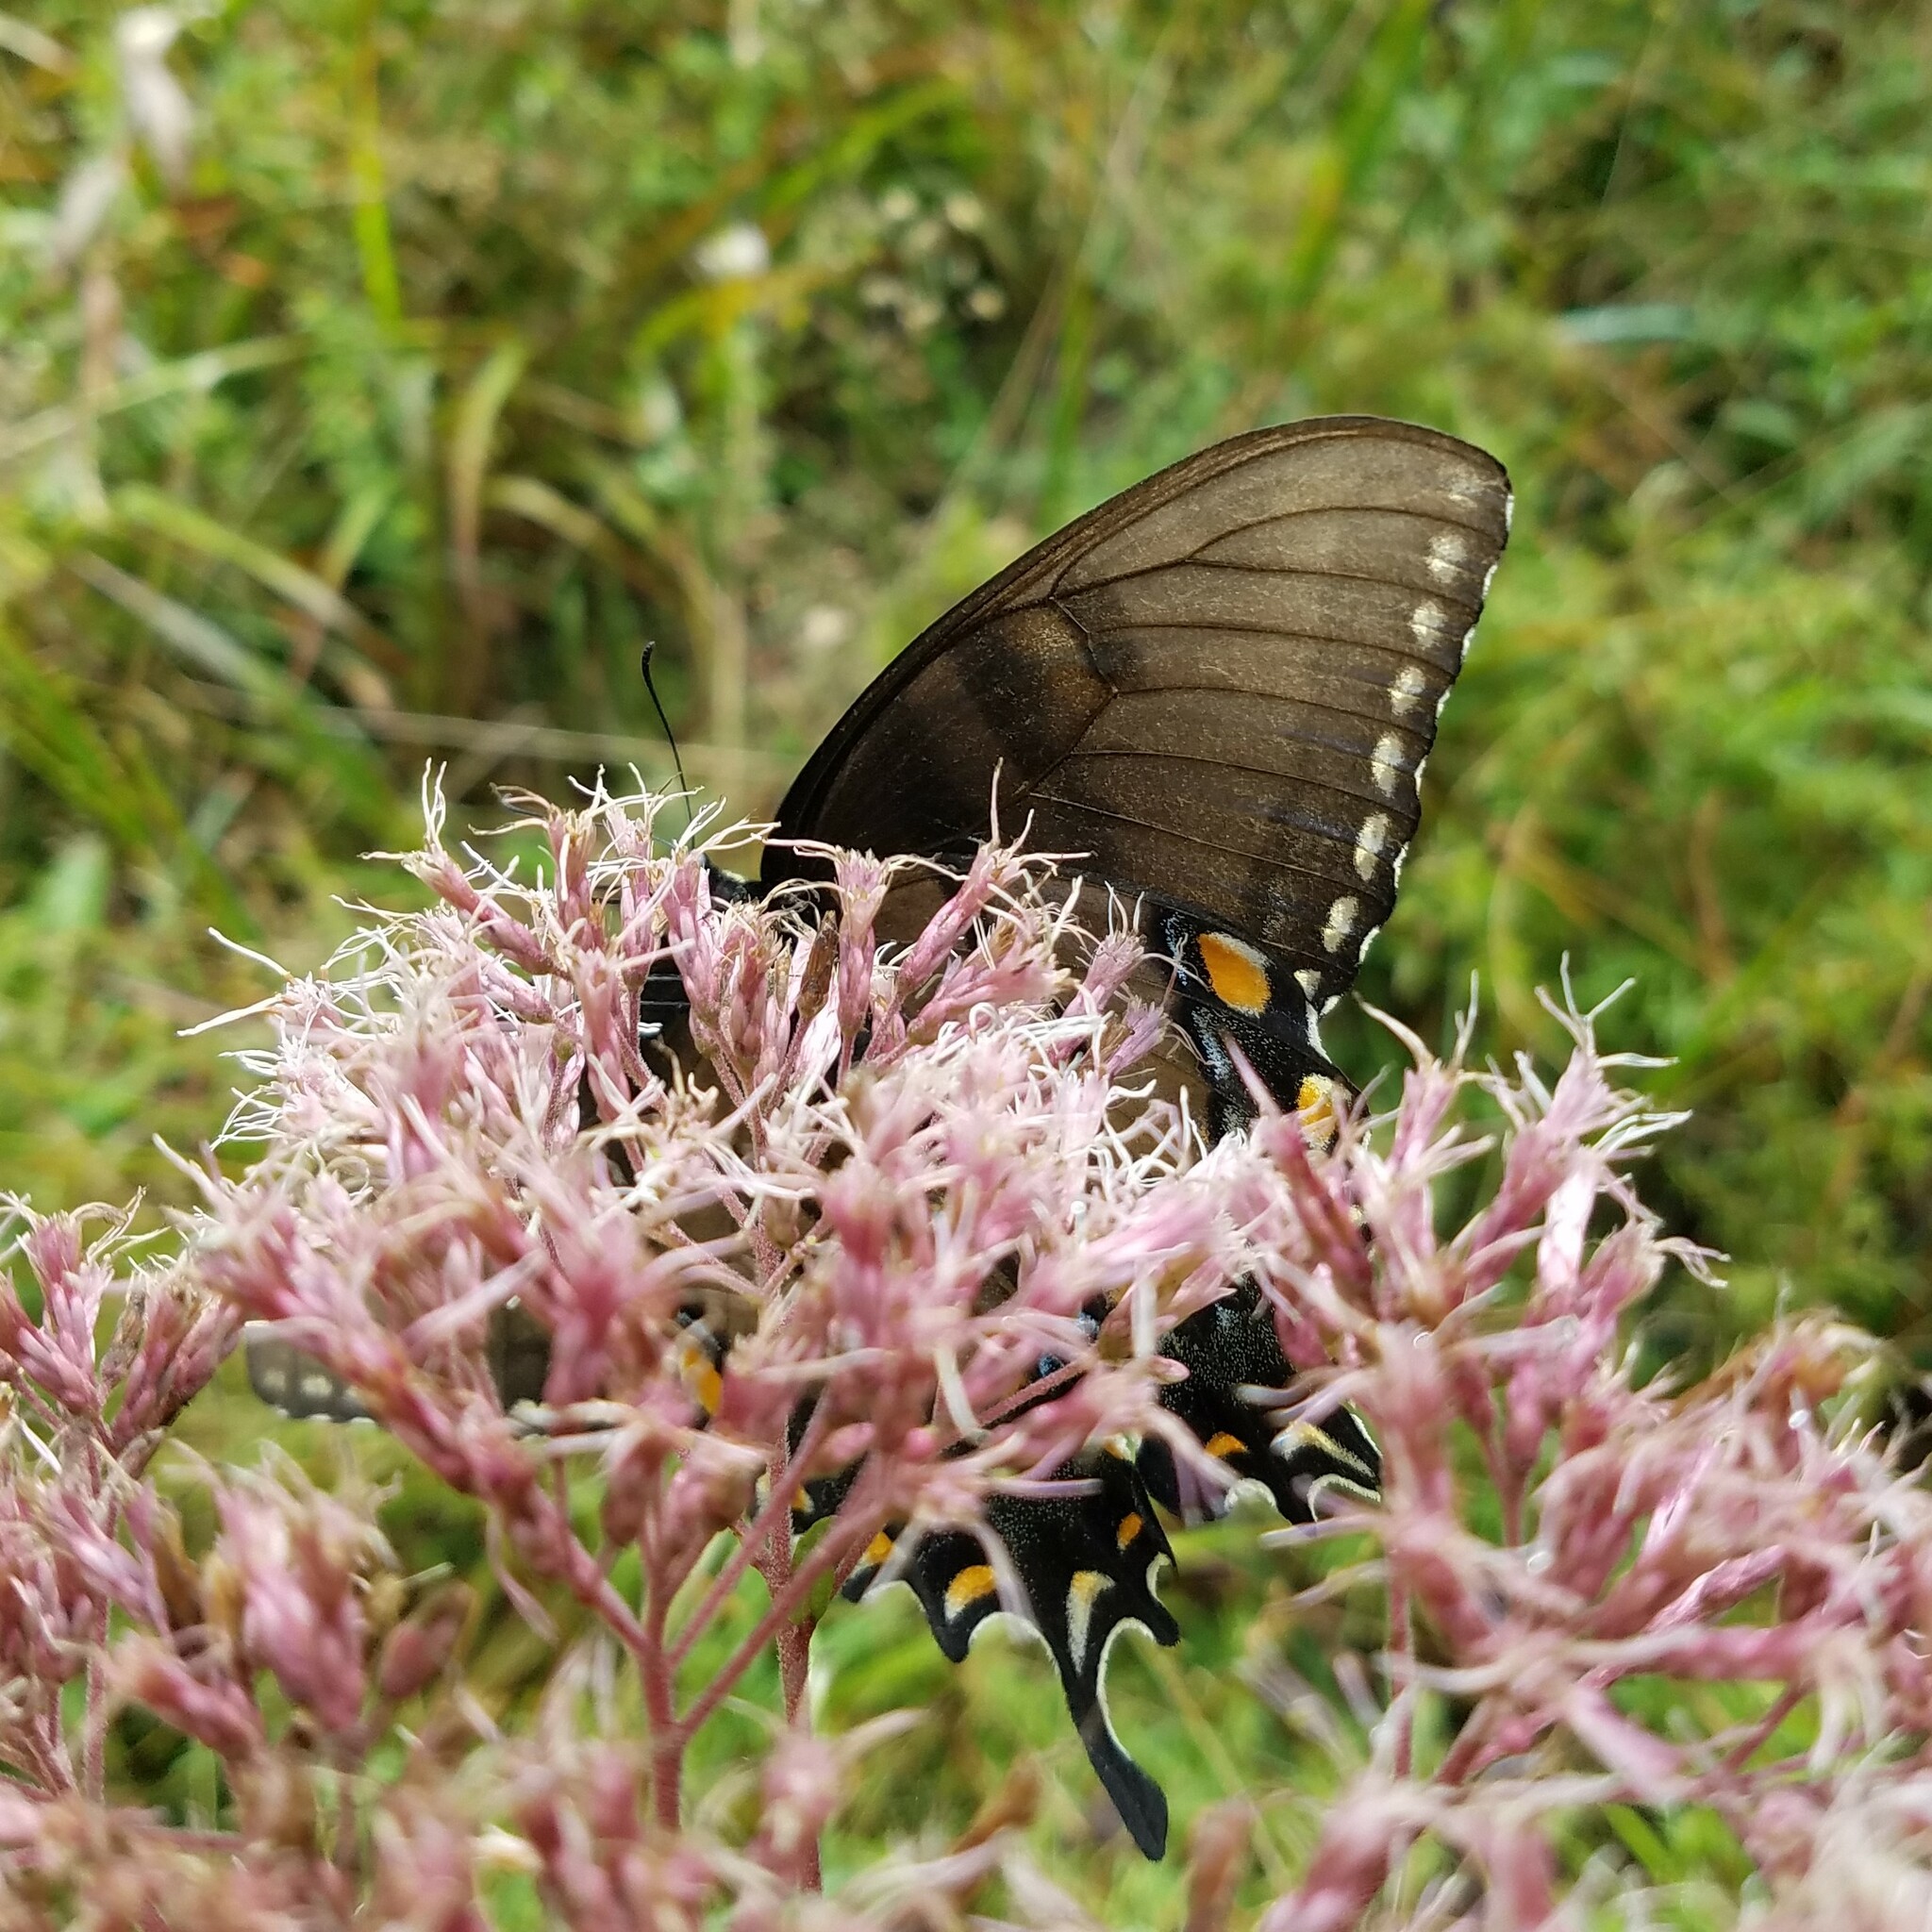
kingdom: Animalia
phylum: Arthropoda
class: Insecta
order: Lepidoptera
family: Papilionidae
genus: Papilio
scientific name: Papilio glaucus
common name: Tiger swallowtail
